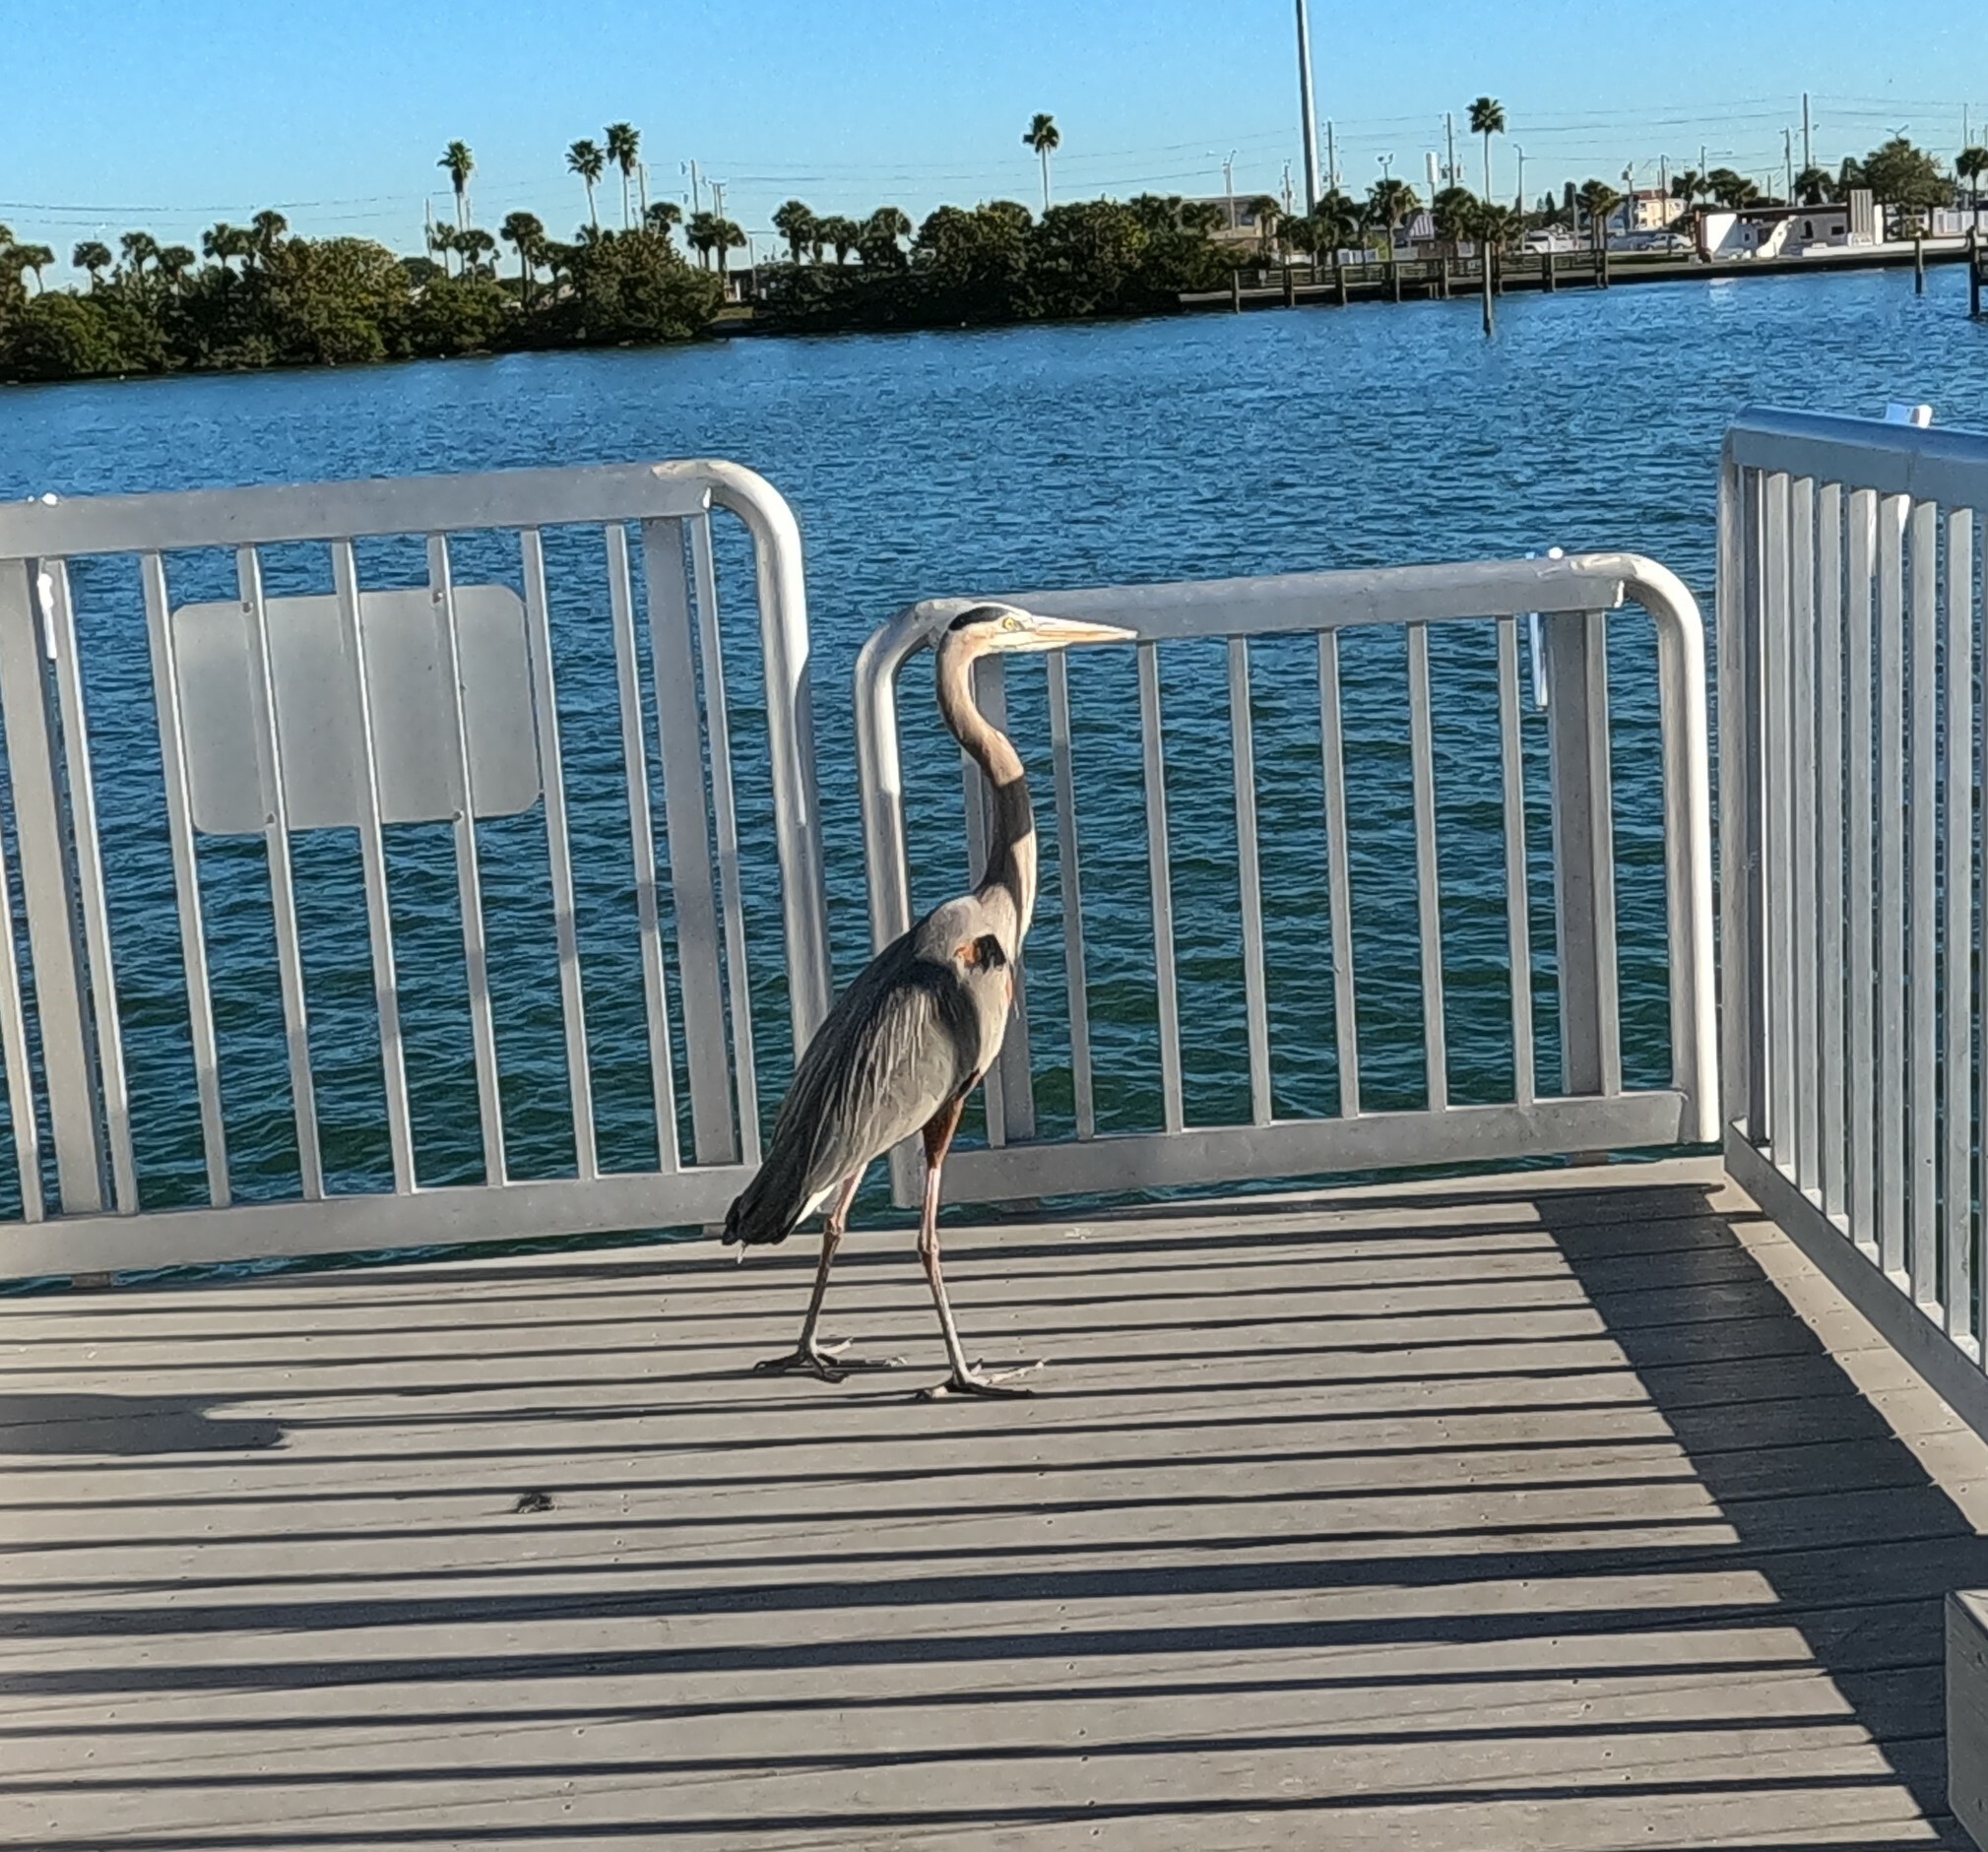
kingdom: Animalia
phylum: Chordata
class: Aves
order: Pelecaniformes
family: Ardeidae
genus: Ardea
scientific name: Ardea herodias
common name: Great blue heron
